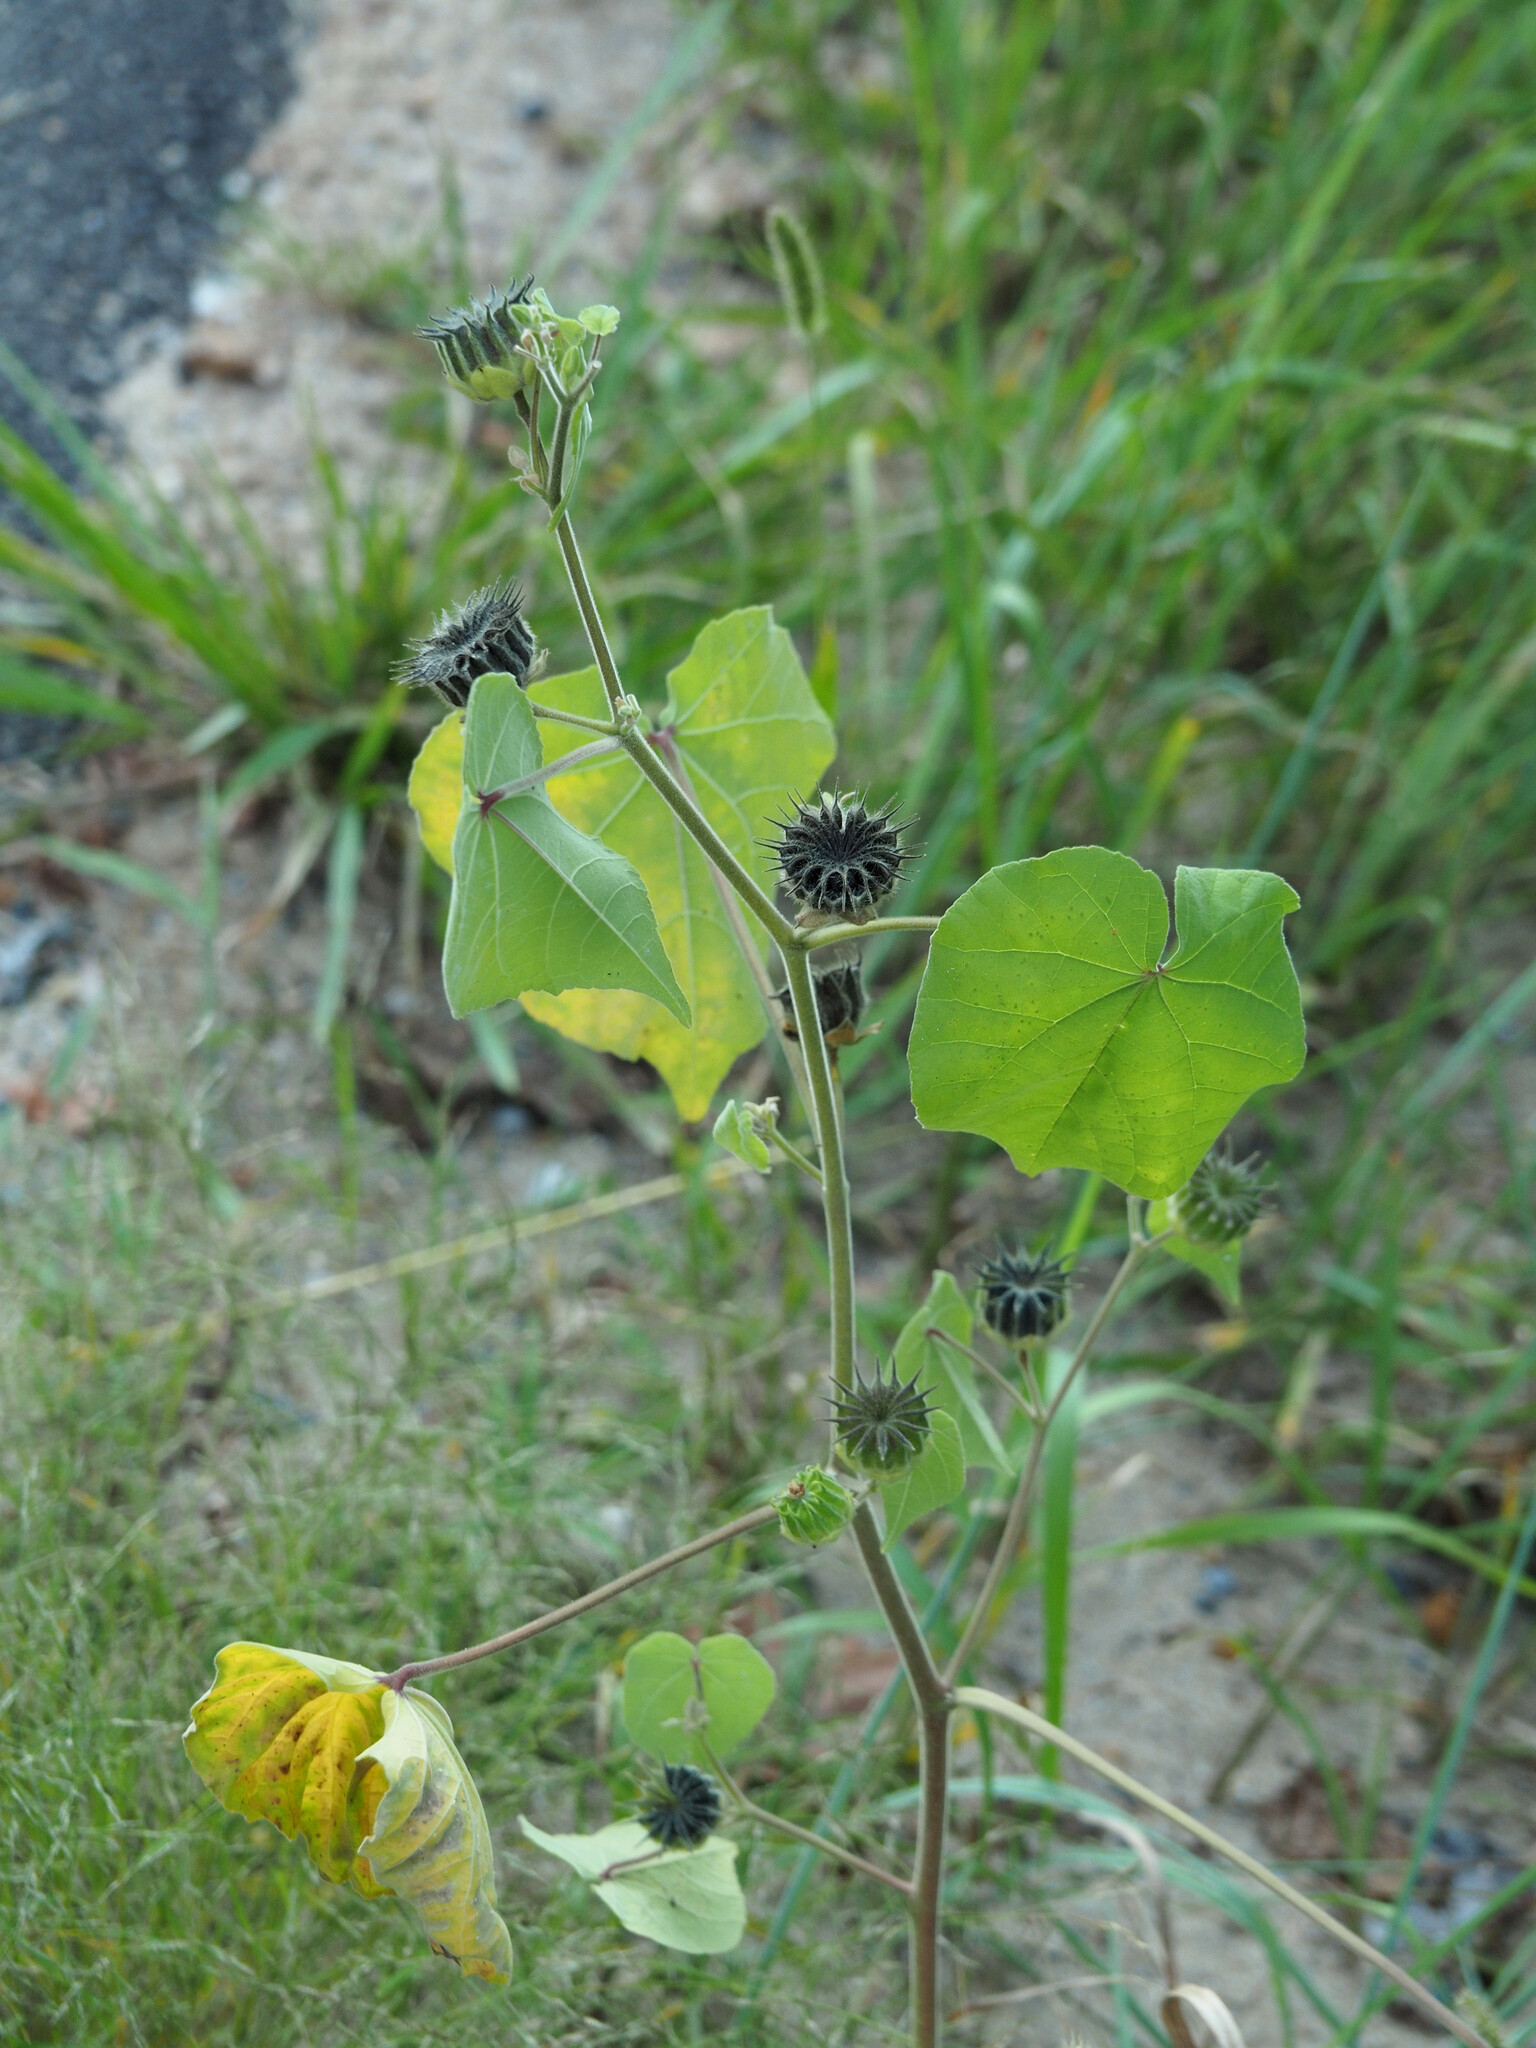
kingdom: Plantae
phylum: Tracheophyta
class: Magnoliopsida
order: Malvales
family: Malvaceae
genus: Abutilon
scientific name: Abutilon theophrasti
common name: Velvetleaf
